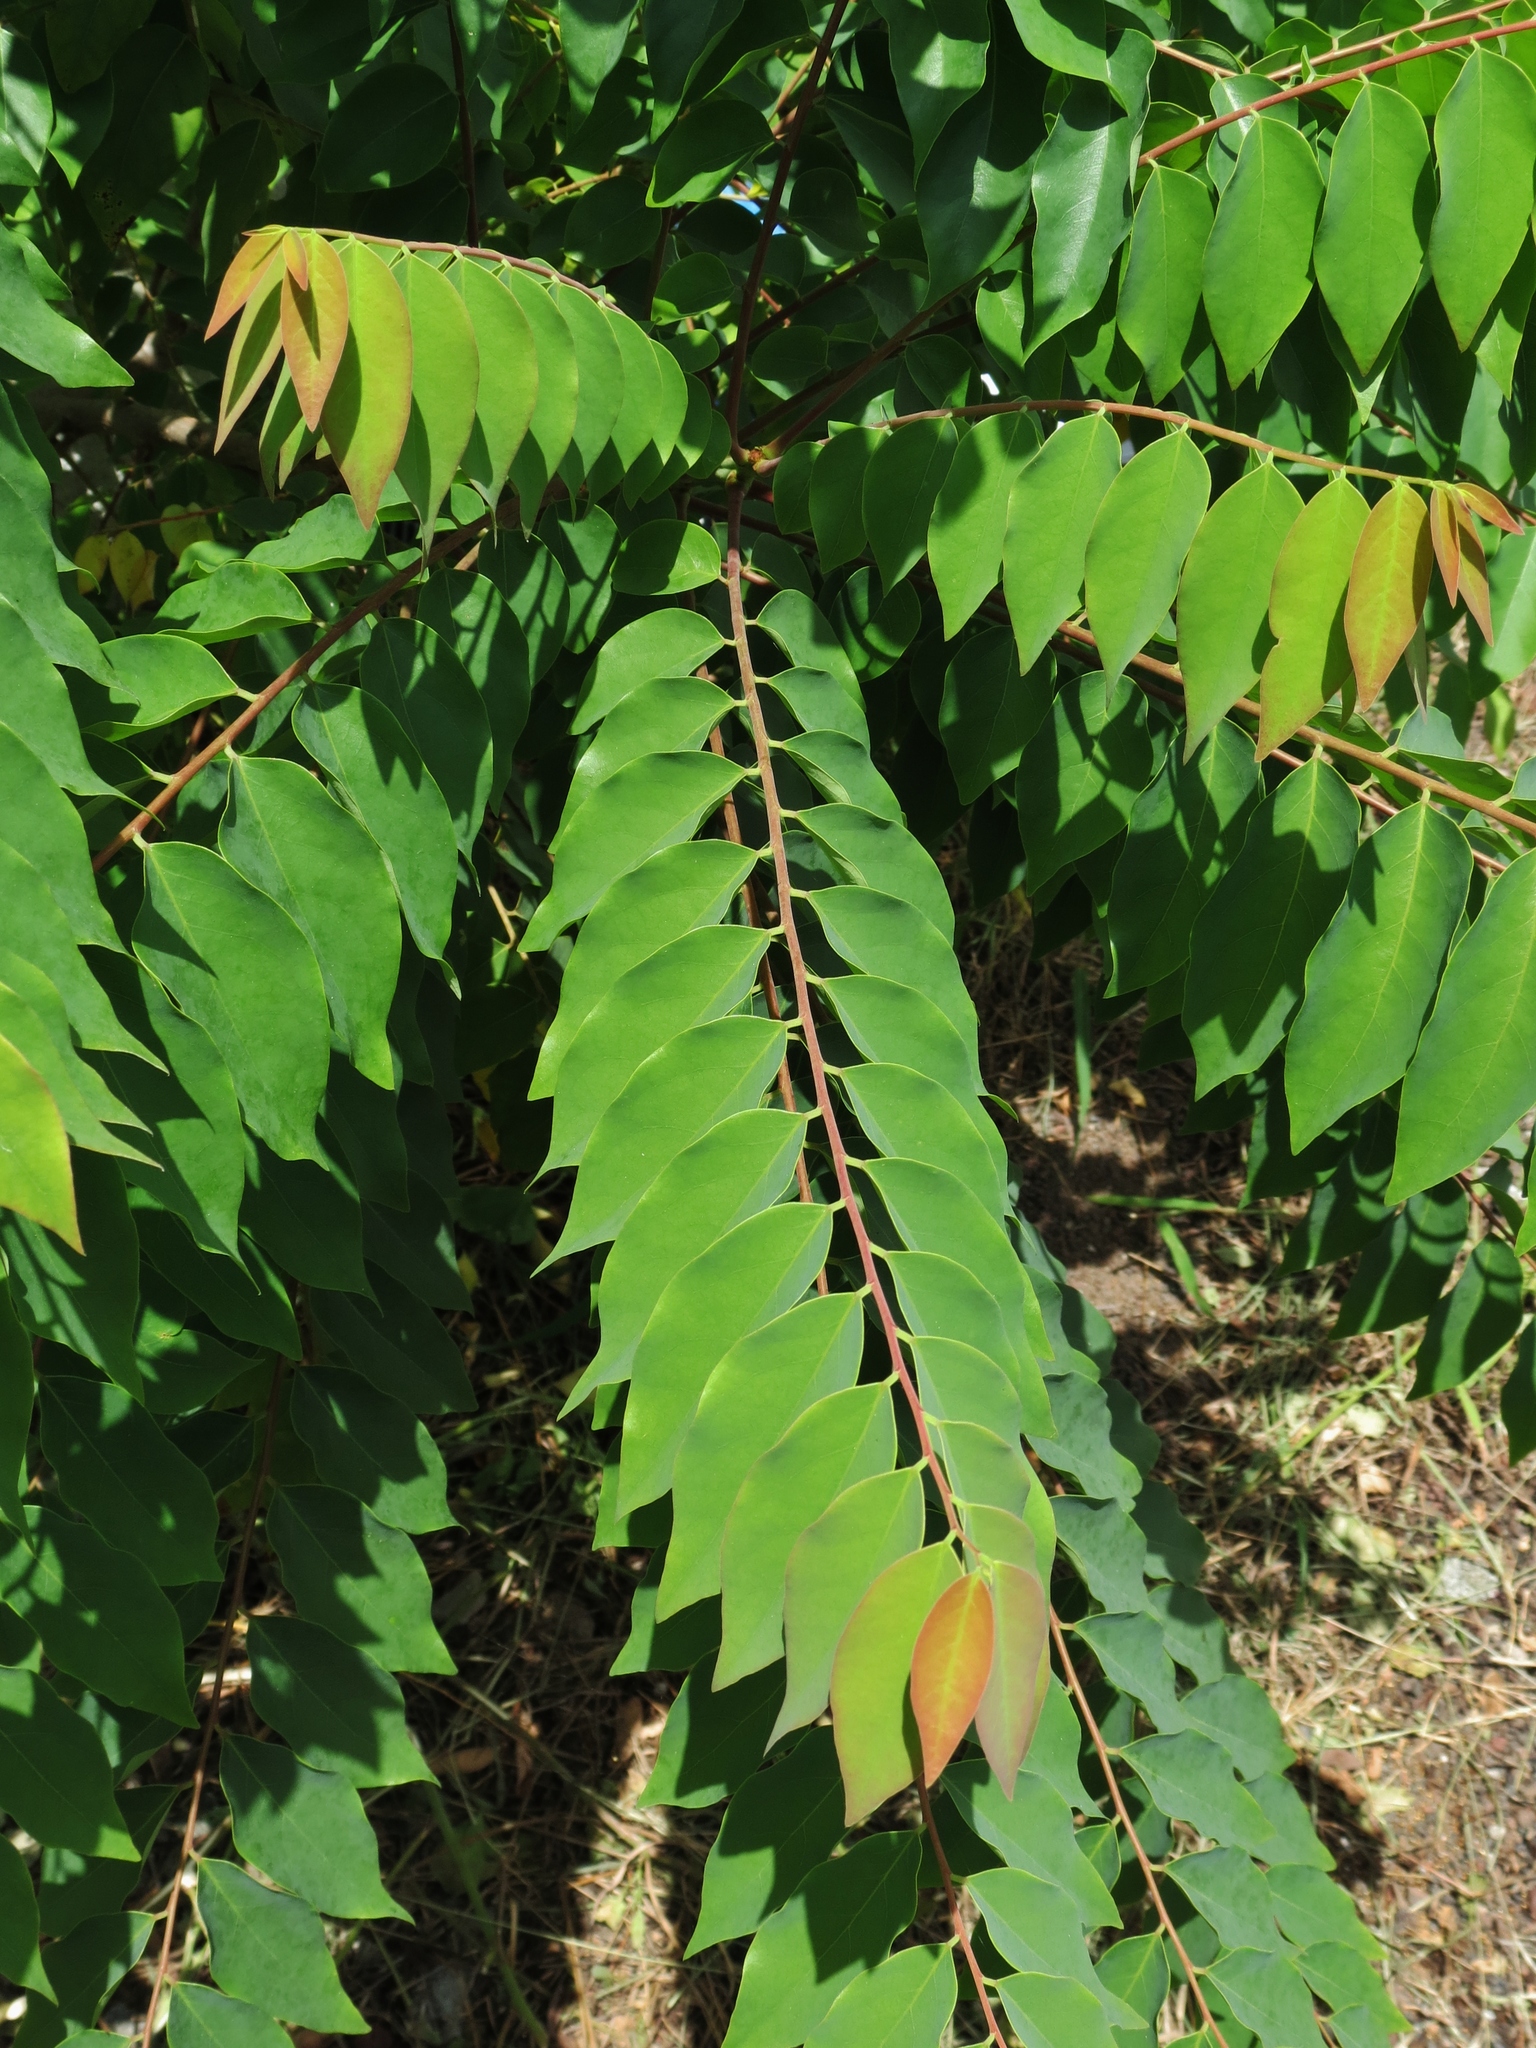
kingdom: Plantae
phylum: Tracheophyta
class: Magnoliopsida
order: Malpighiales
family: Phyllanthaceae
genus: Phyllanthus
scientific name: Phyllanthus acidus
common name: Tahitian gooseberry tree
